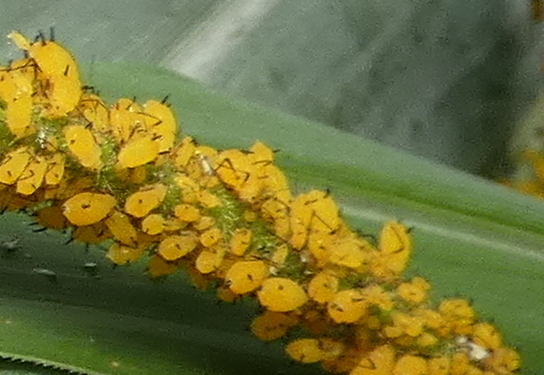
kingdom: Animalia
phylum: Arthropoda
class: Insecta
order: Hemiptera
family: Aphididae
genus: Aphis
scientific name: Aphis nerii
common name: Oleander aphid
